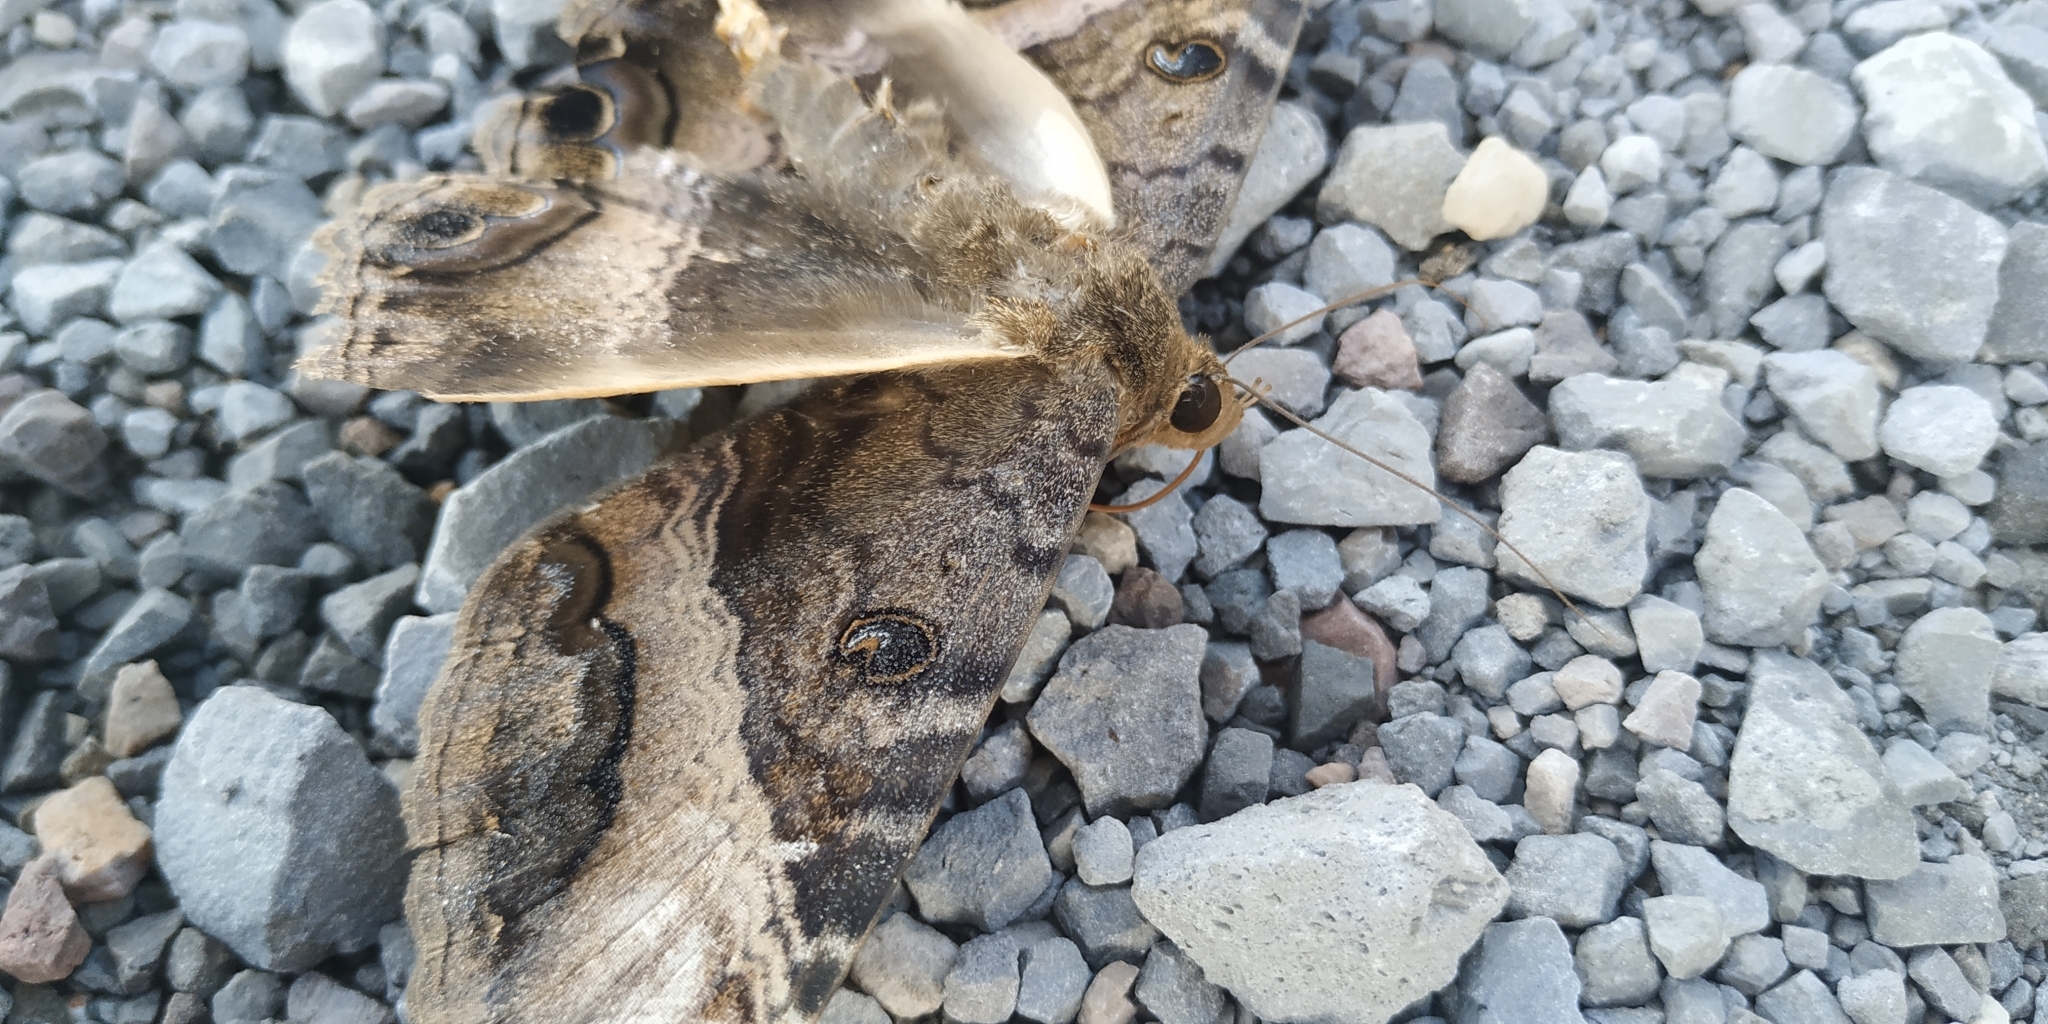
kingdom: Animalia
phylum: Arthropoda
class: Insecta
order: Lepidoptera
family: Erebidae
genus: Ascalapha
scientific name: Ascalapha odorata
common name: Black witch
